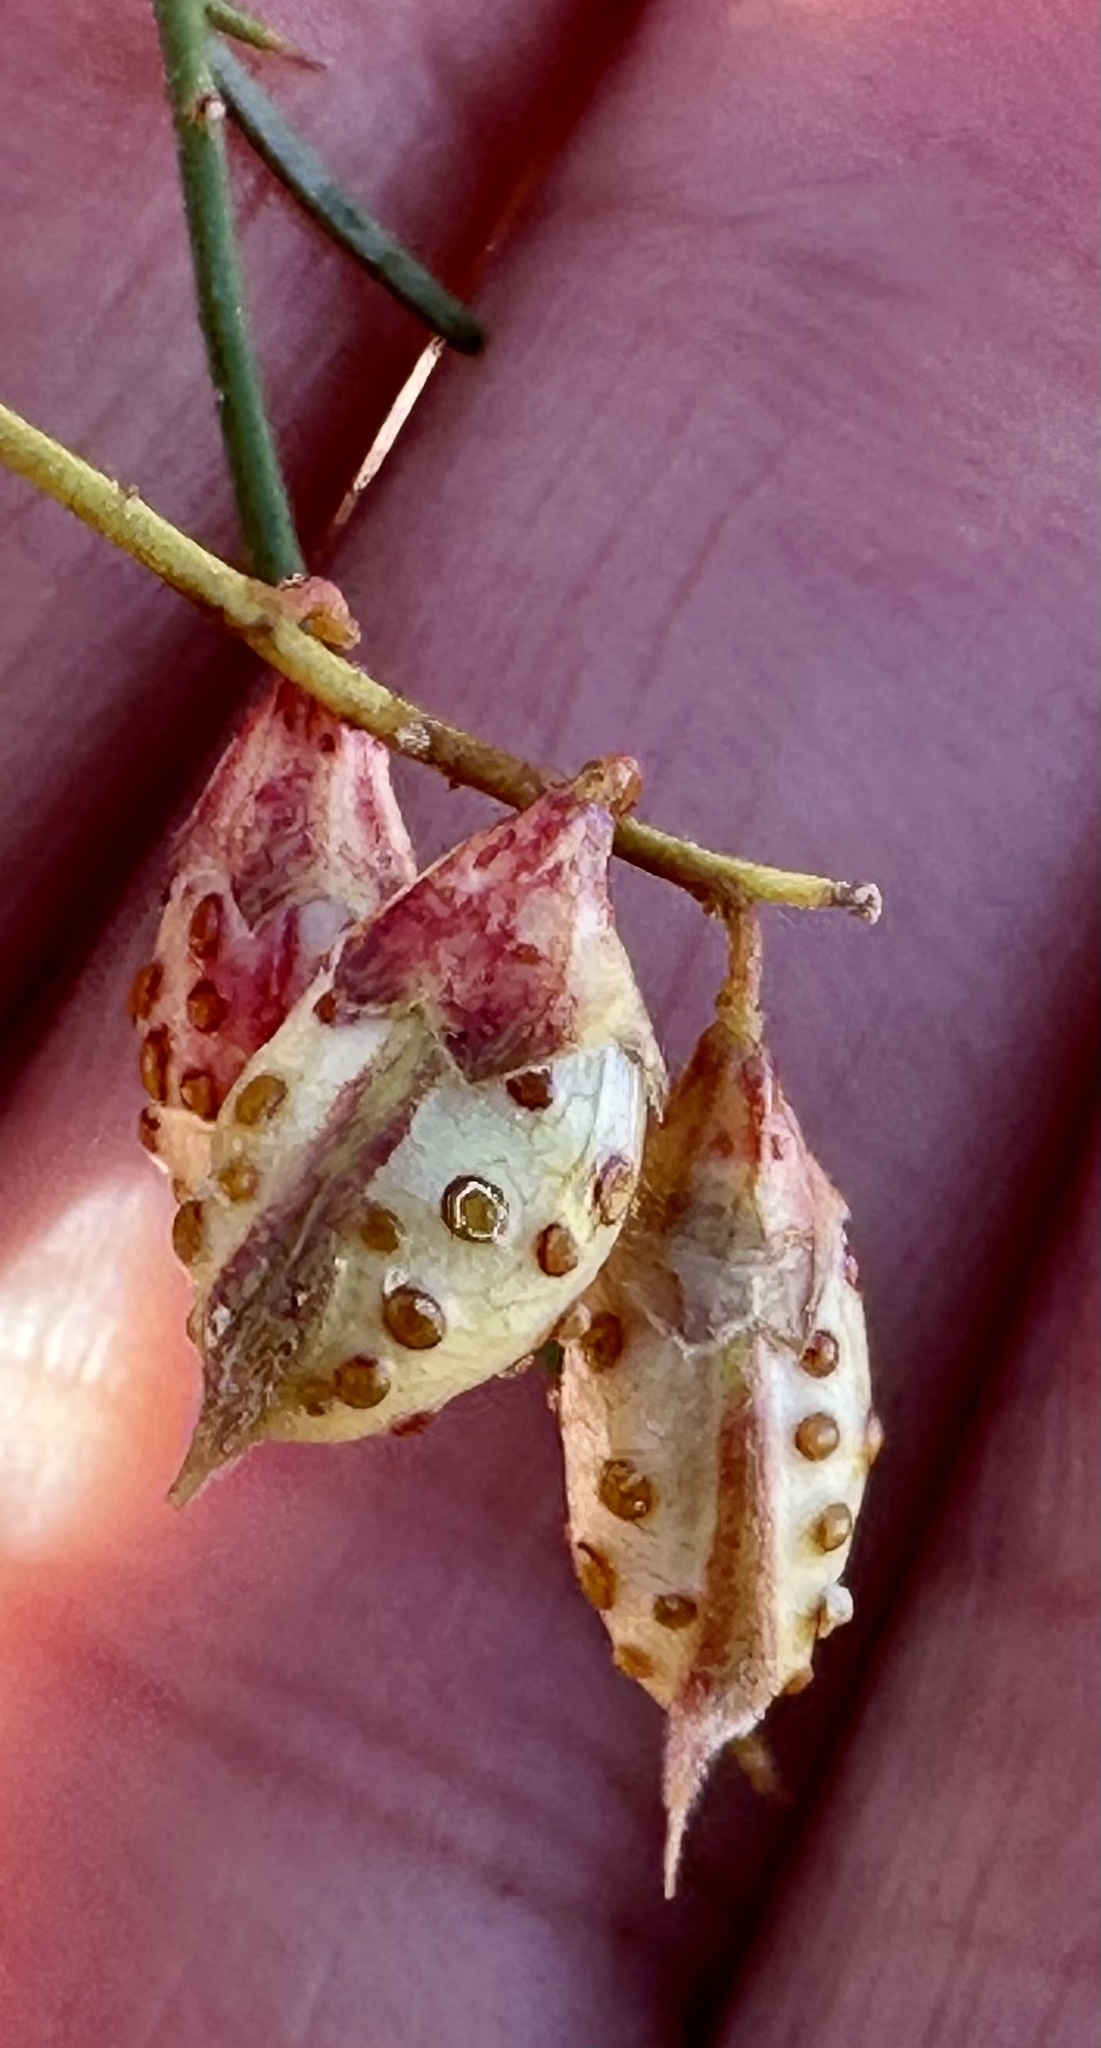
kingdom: Plantae
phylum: Tracheophyta
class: Magnoliopsida
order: Fabales
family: Fabaceae
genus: Psorothamnus
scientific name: Psorothamnus schottii
